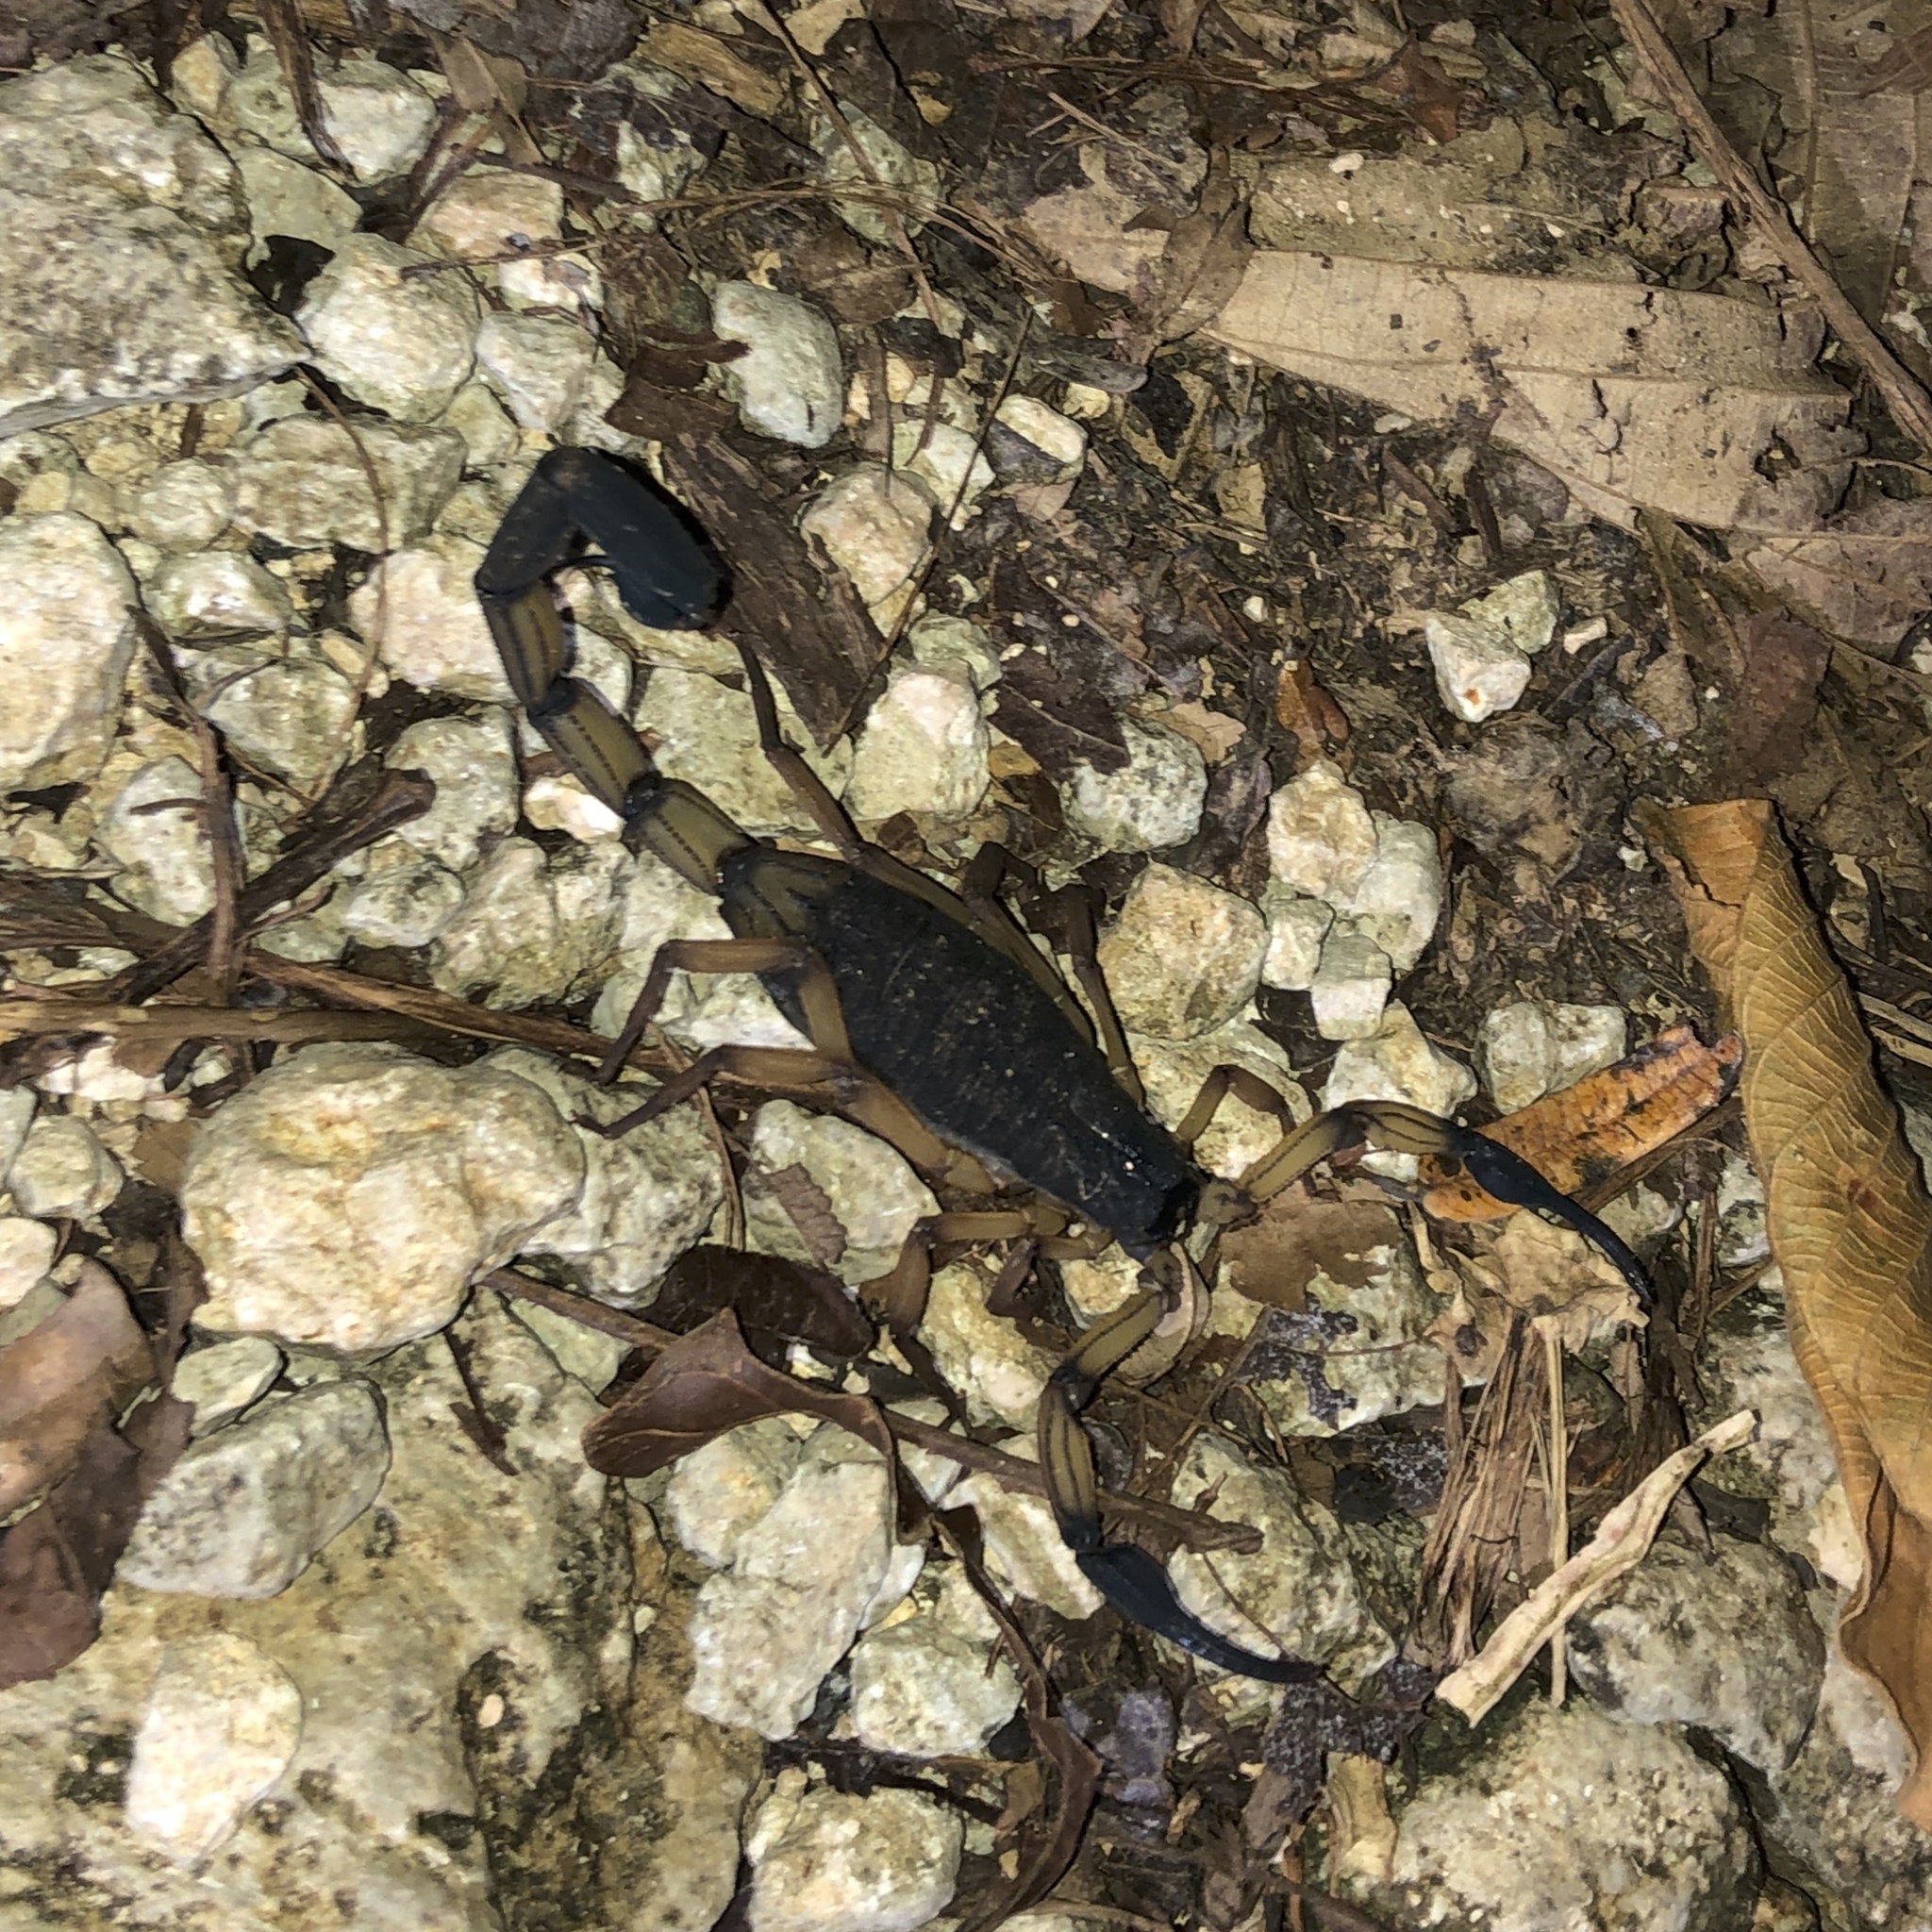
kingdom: Animalia
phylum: Arthropoda
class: Arachnida
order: Scorpiones
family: Buthidae
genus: Centruroides
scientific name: Centruroides bicolor
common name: Scorpions
